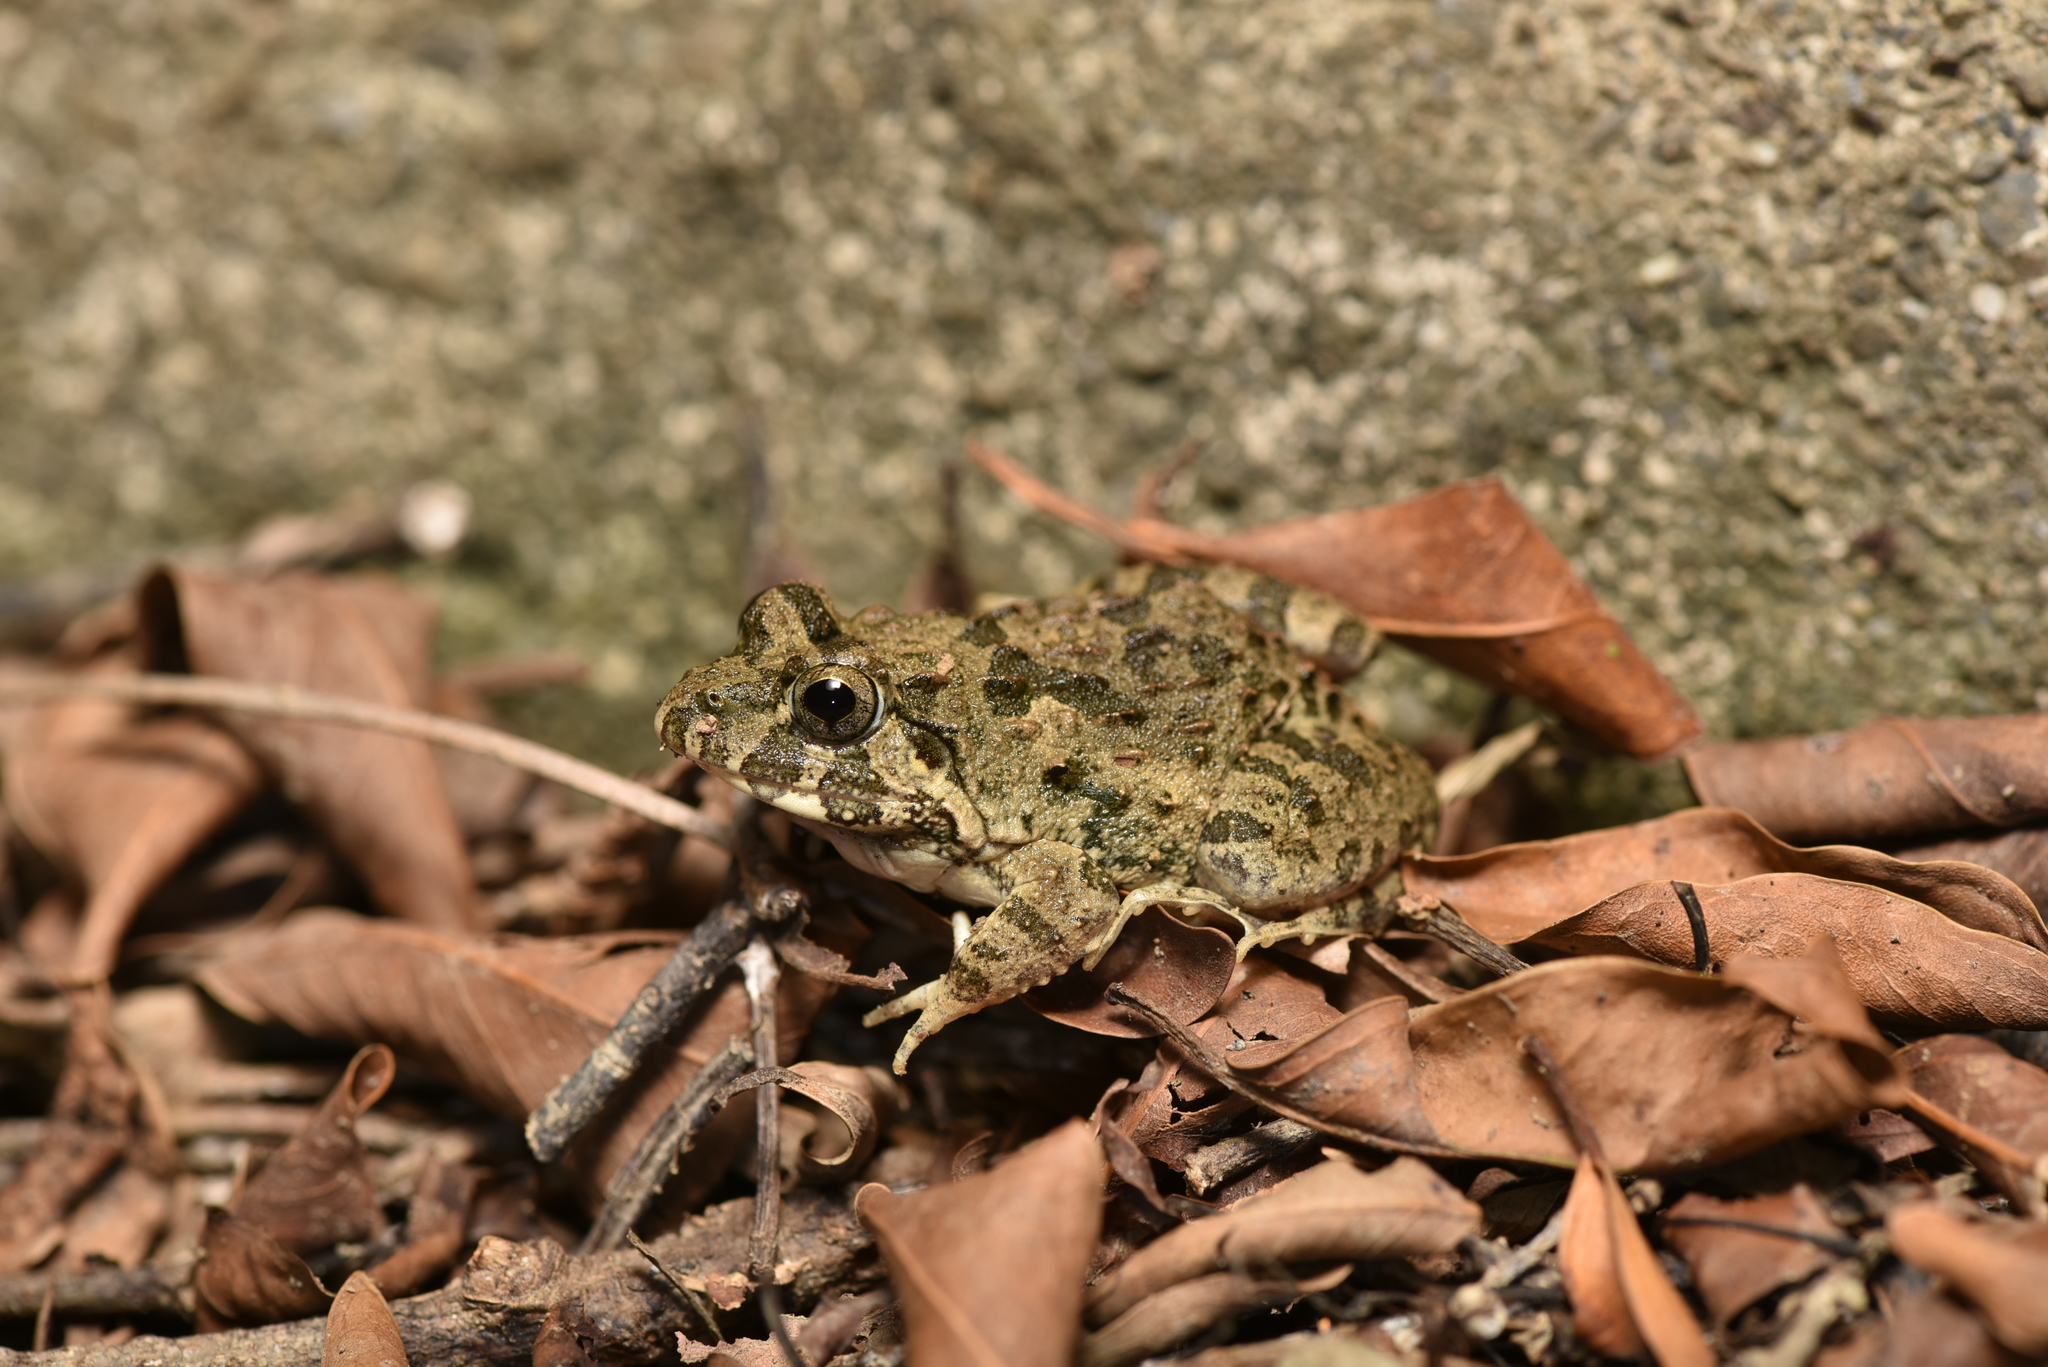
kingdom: Animalia
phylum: Chordata
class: Amphibia
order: Anura
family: Dicroglossidae
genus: Fejervarya
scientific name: Fejervarya limnocharis
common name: Asian grass frog/common pond frog/field frog/grass frog/indian rice frog
